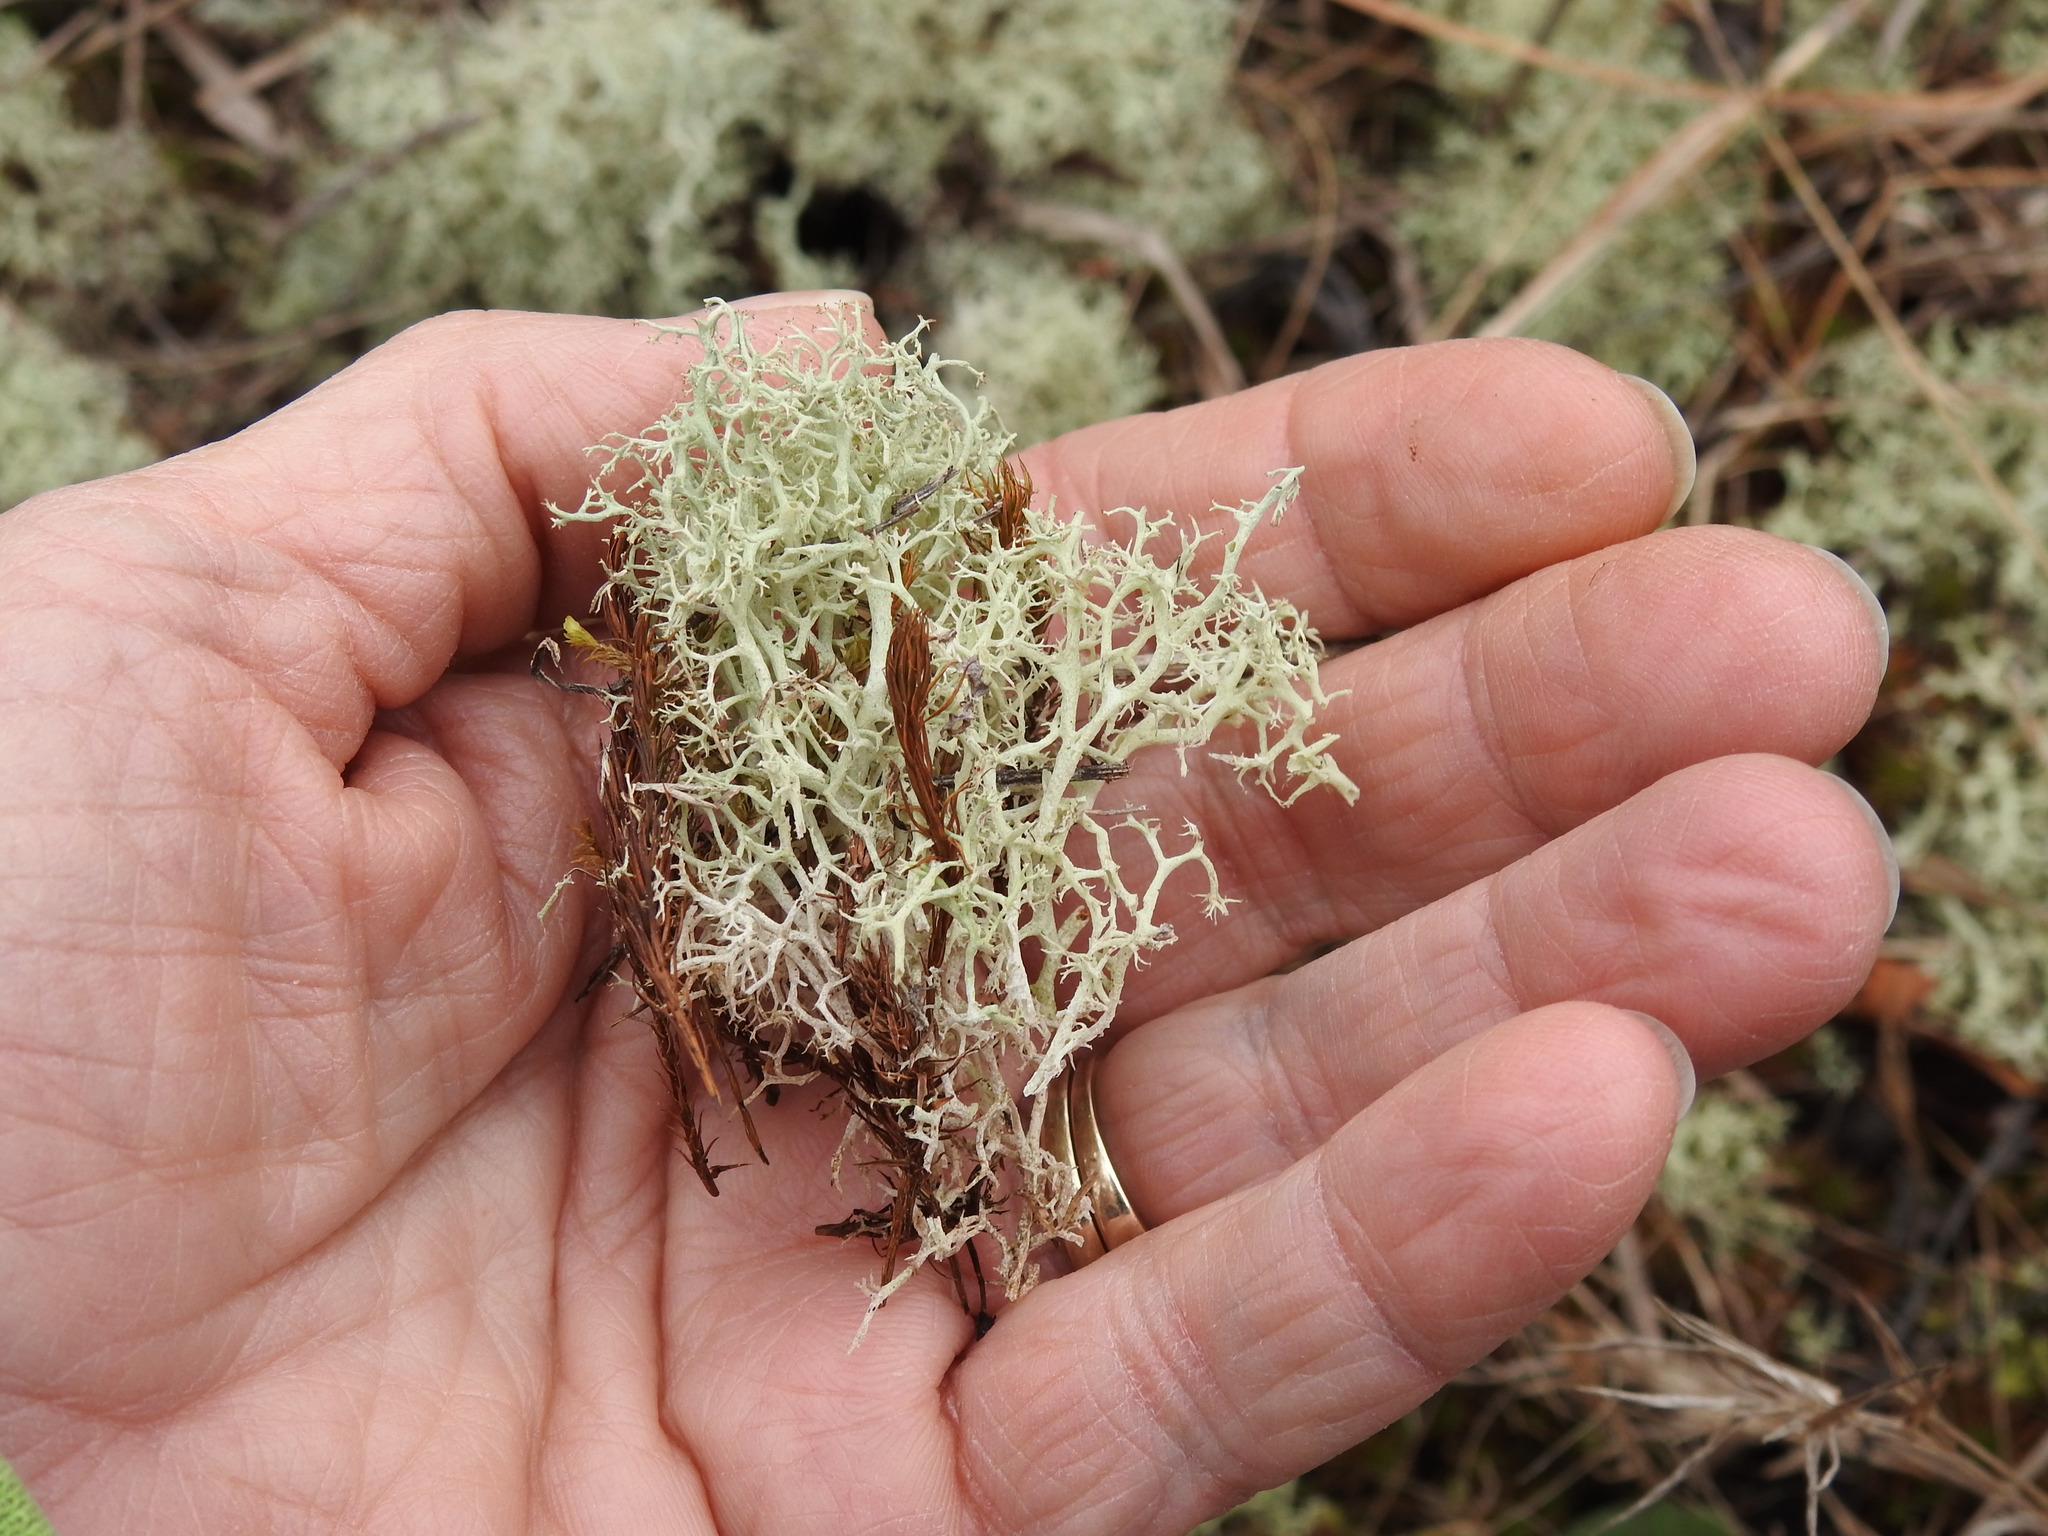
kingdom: Fungi
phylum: Ascomycota
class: Lecanoromycetes
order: Lecanorales
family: Cladoniaceae
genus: Cladonia
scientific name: Cladonia
